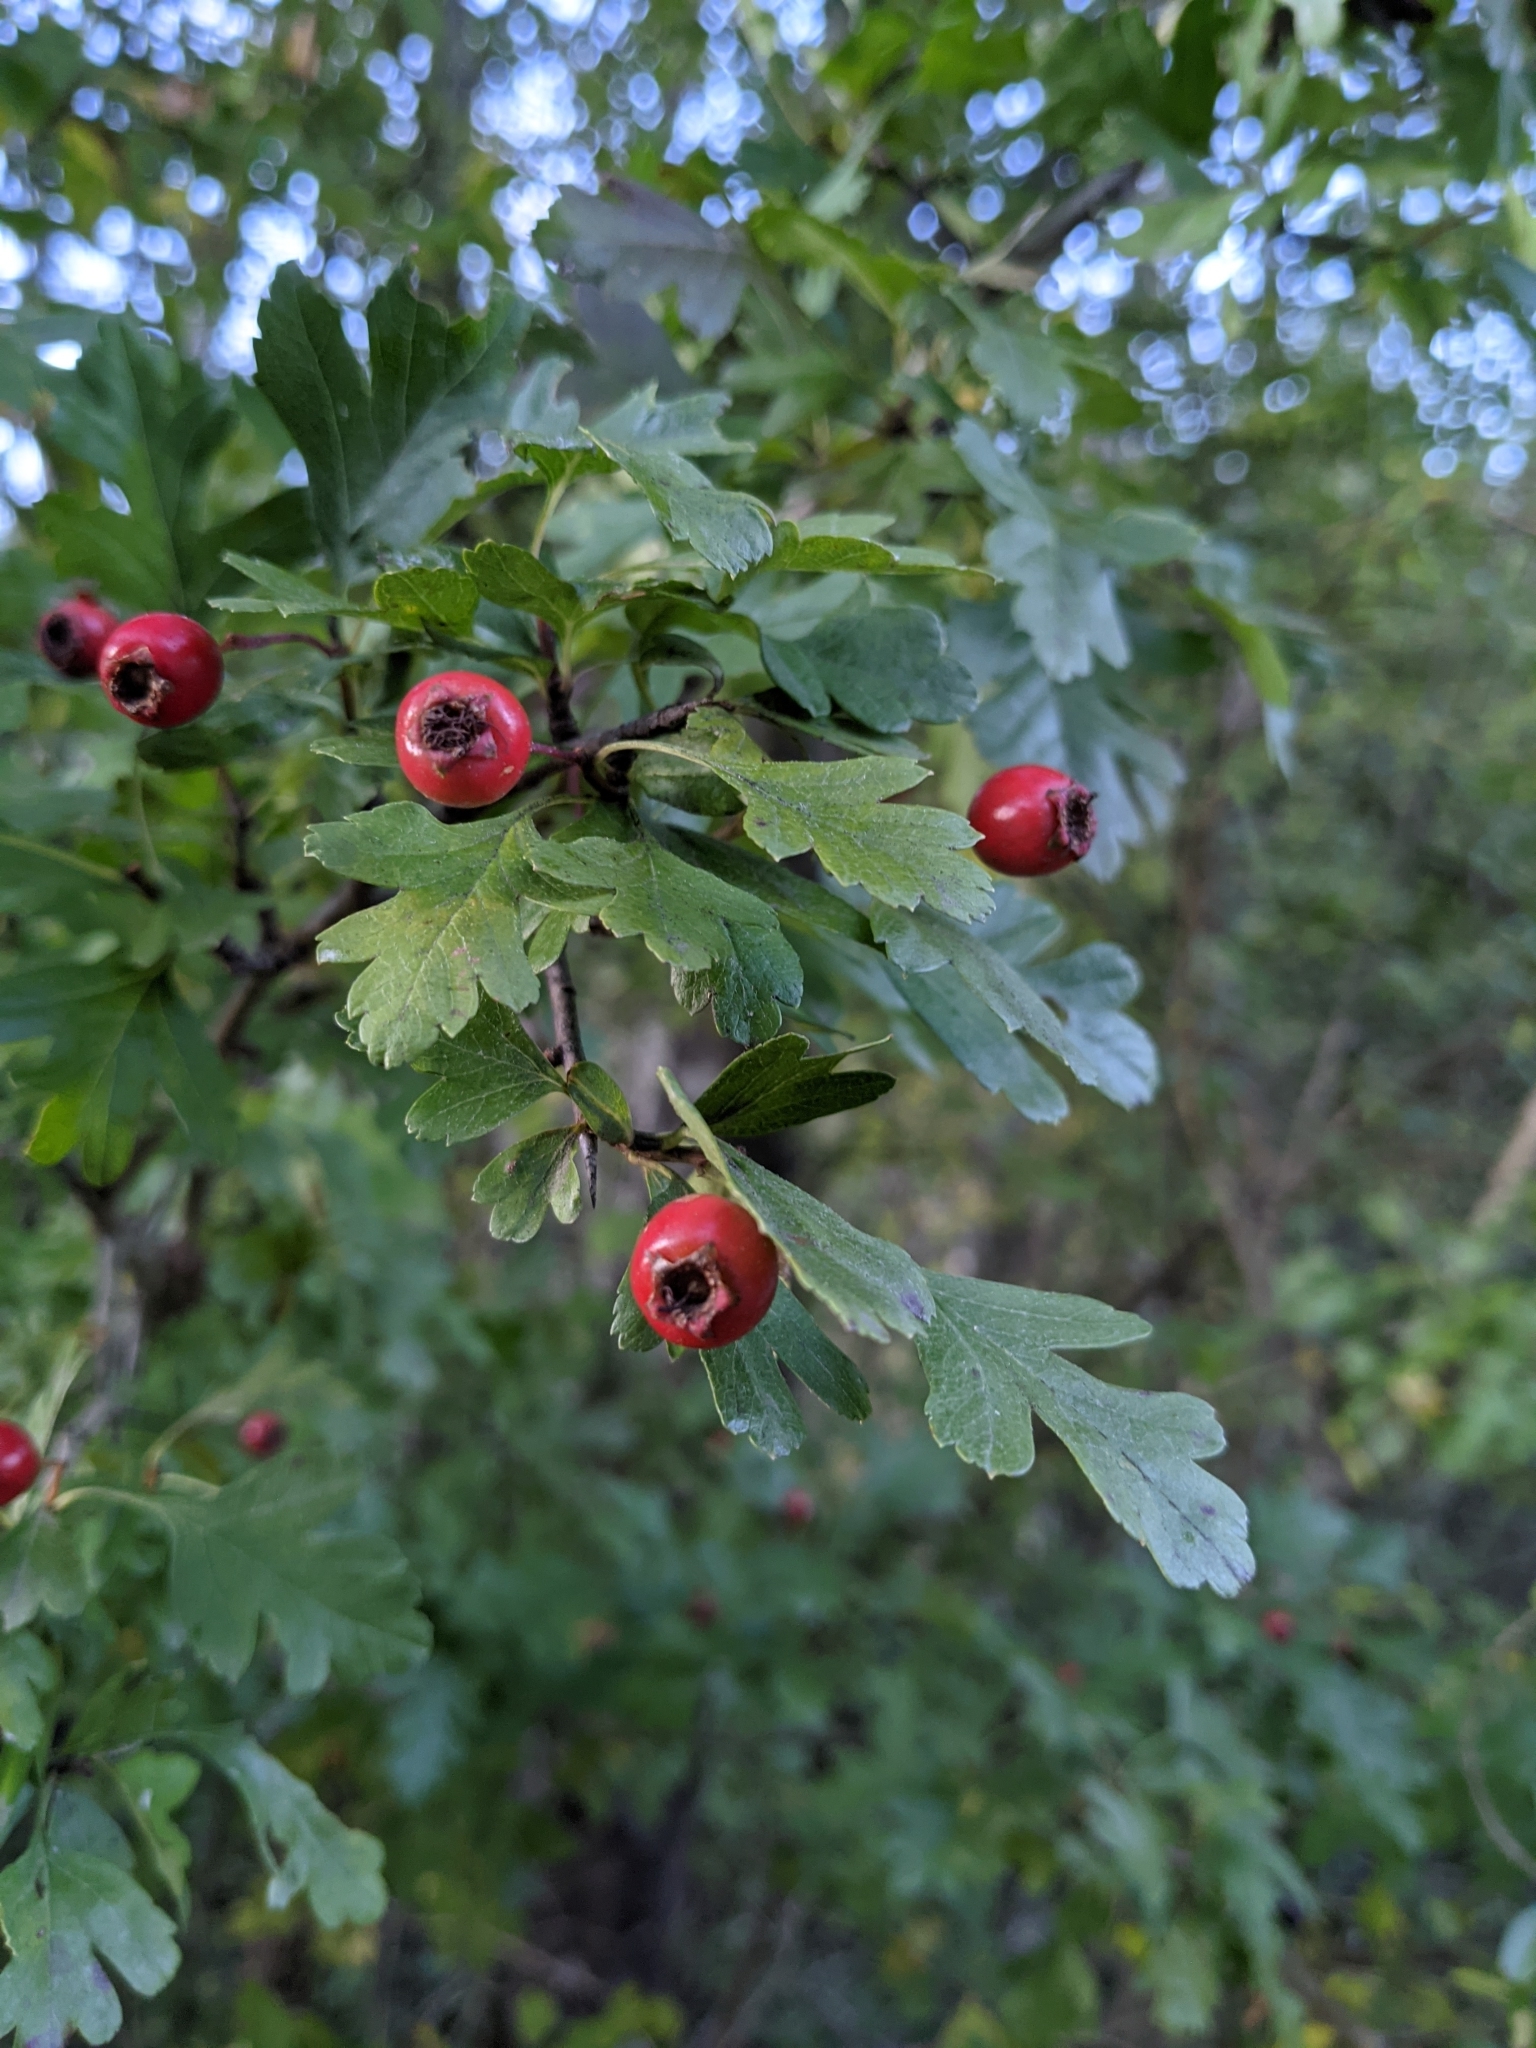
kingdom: Plantae
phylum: Tracheophyta
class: Magnoliopsida
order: Rosales
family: Rosaceae
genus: Crataegus
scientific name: Crataegus monogyna
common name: Hawthorn
